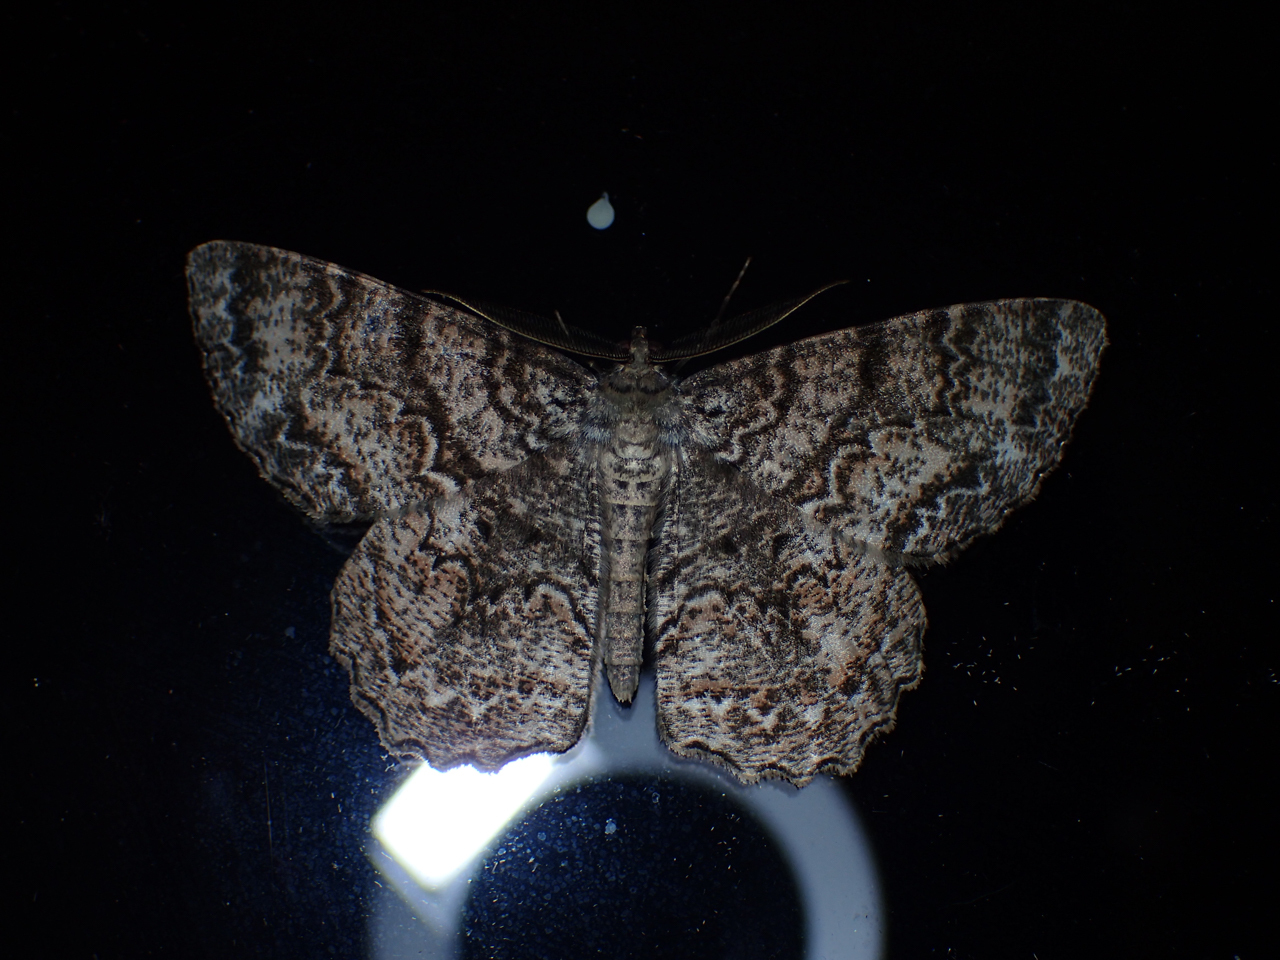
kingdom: Animalia
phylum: Arthropoda
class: Insecta
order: Lepidoptera
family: Geometridae
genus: Epimecis
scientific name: Epimecis hortaria
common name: Tulip-tree beauty
